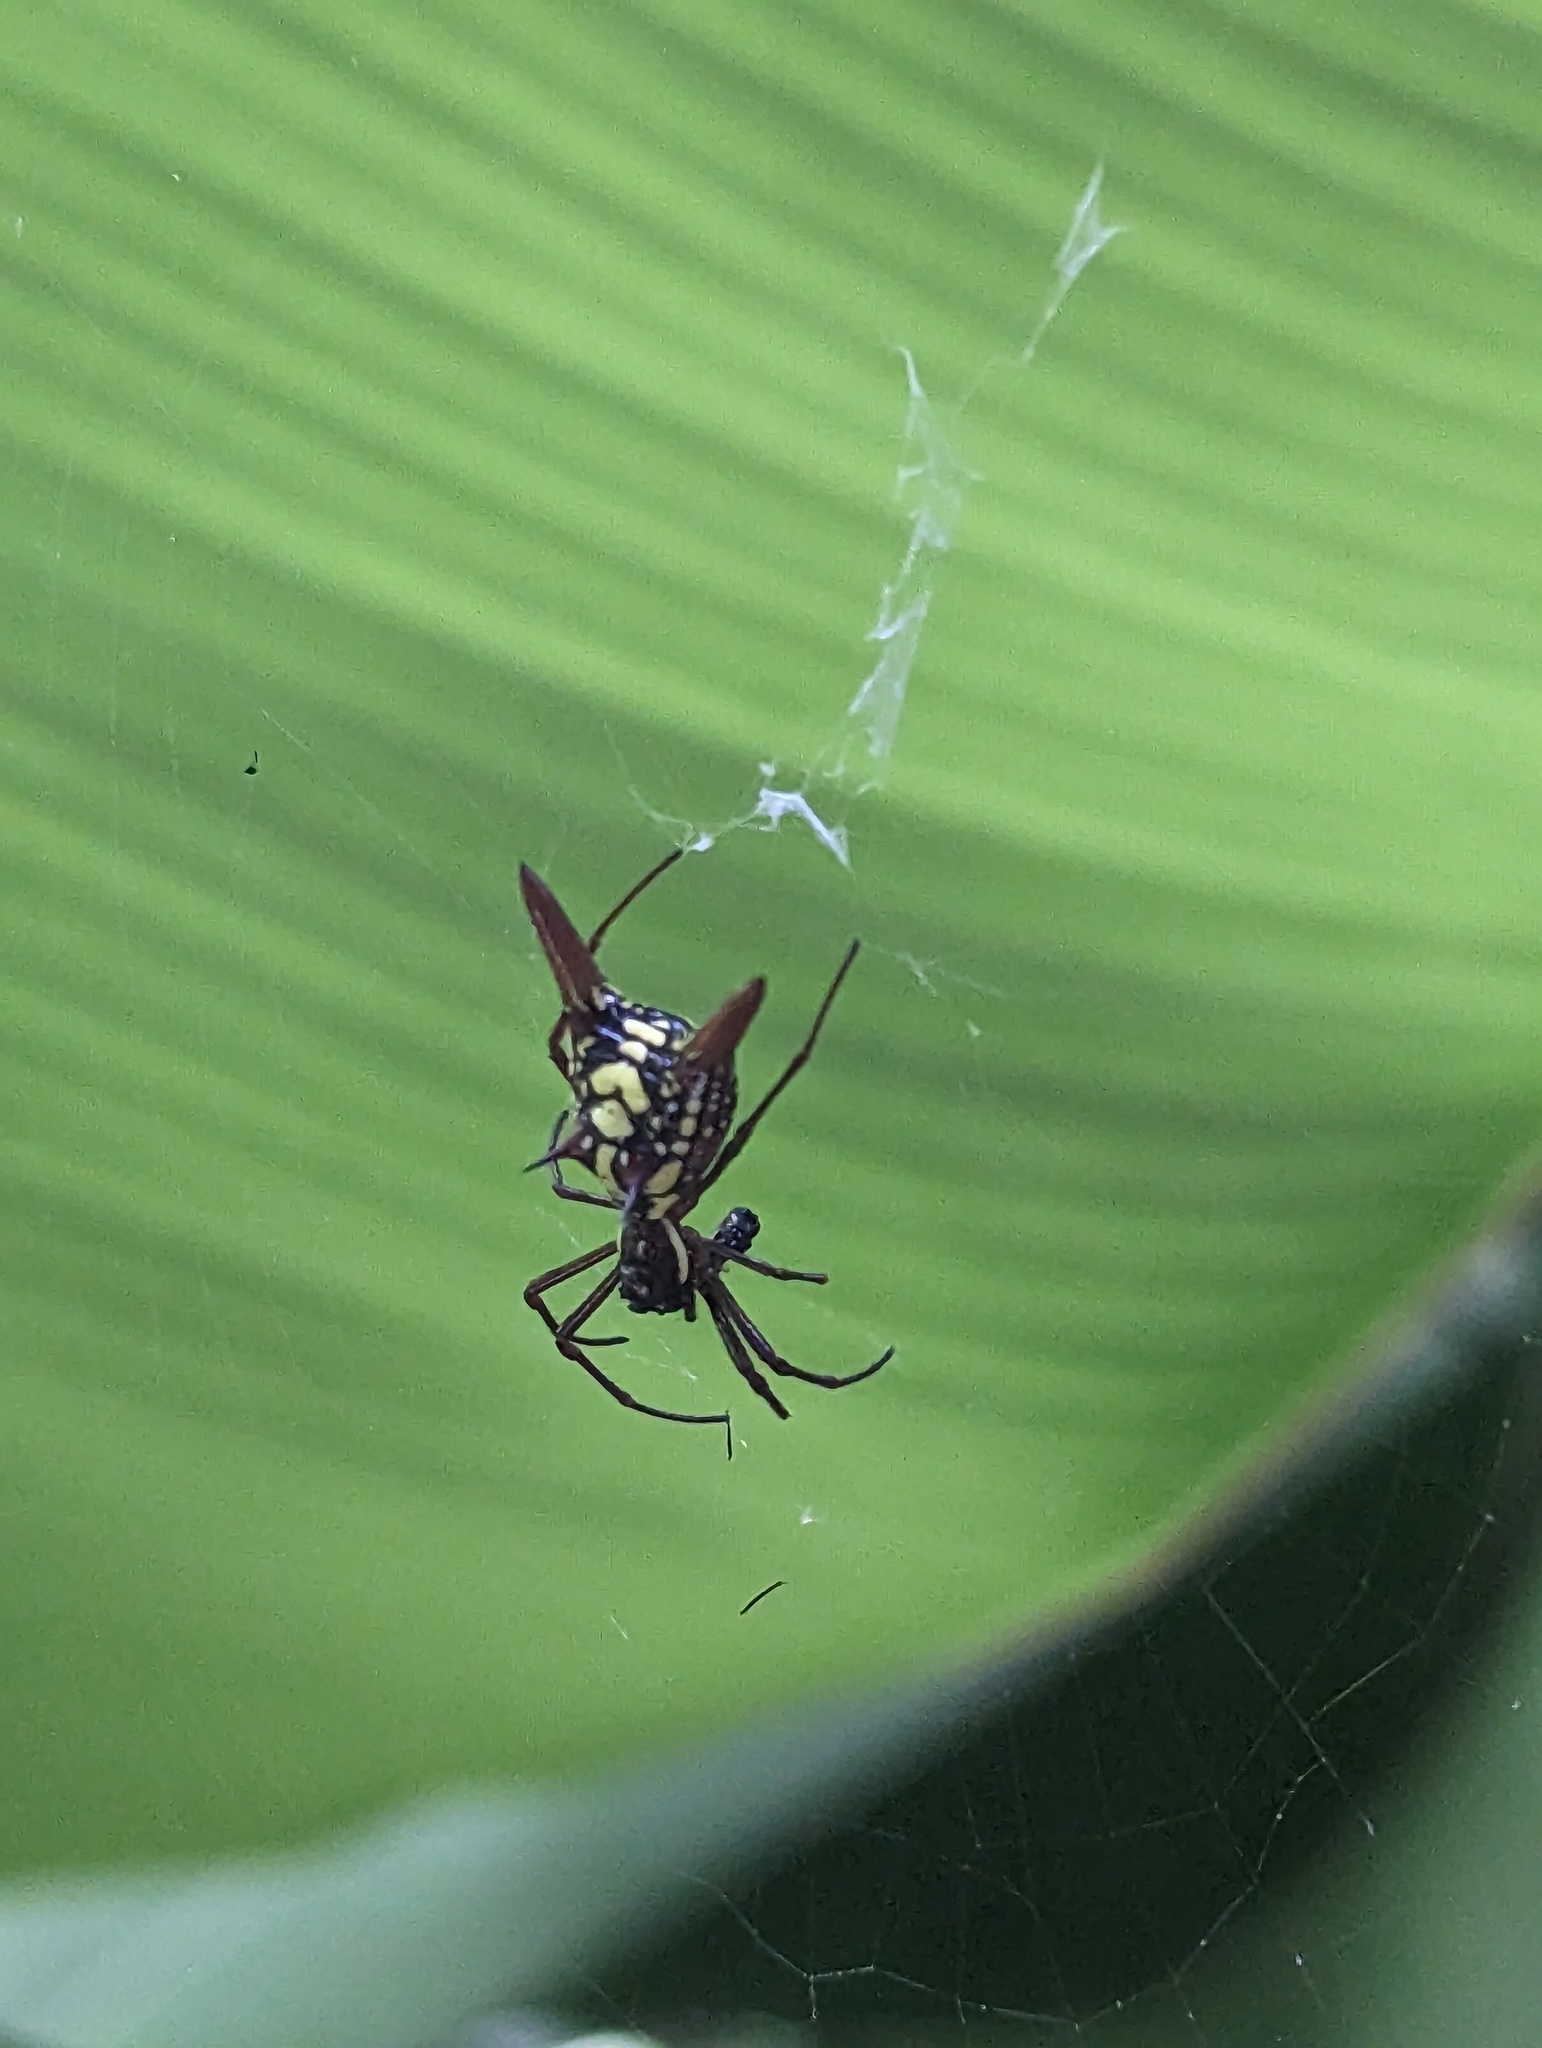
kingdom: Animalia
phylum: Arthropoda
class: Arachnida
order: Araneae
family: Araneidae
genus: Micrathena
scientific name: Micrathena sexspinosa
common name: Orb weavers
